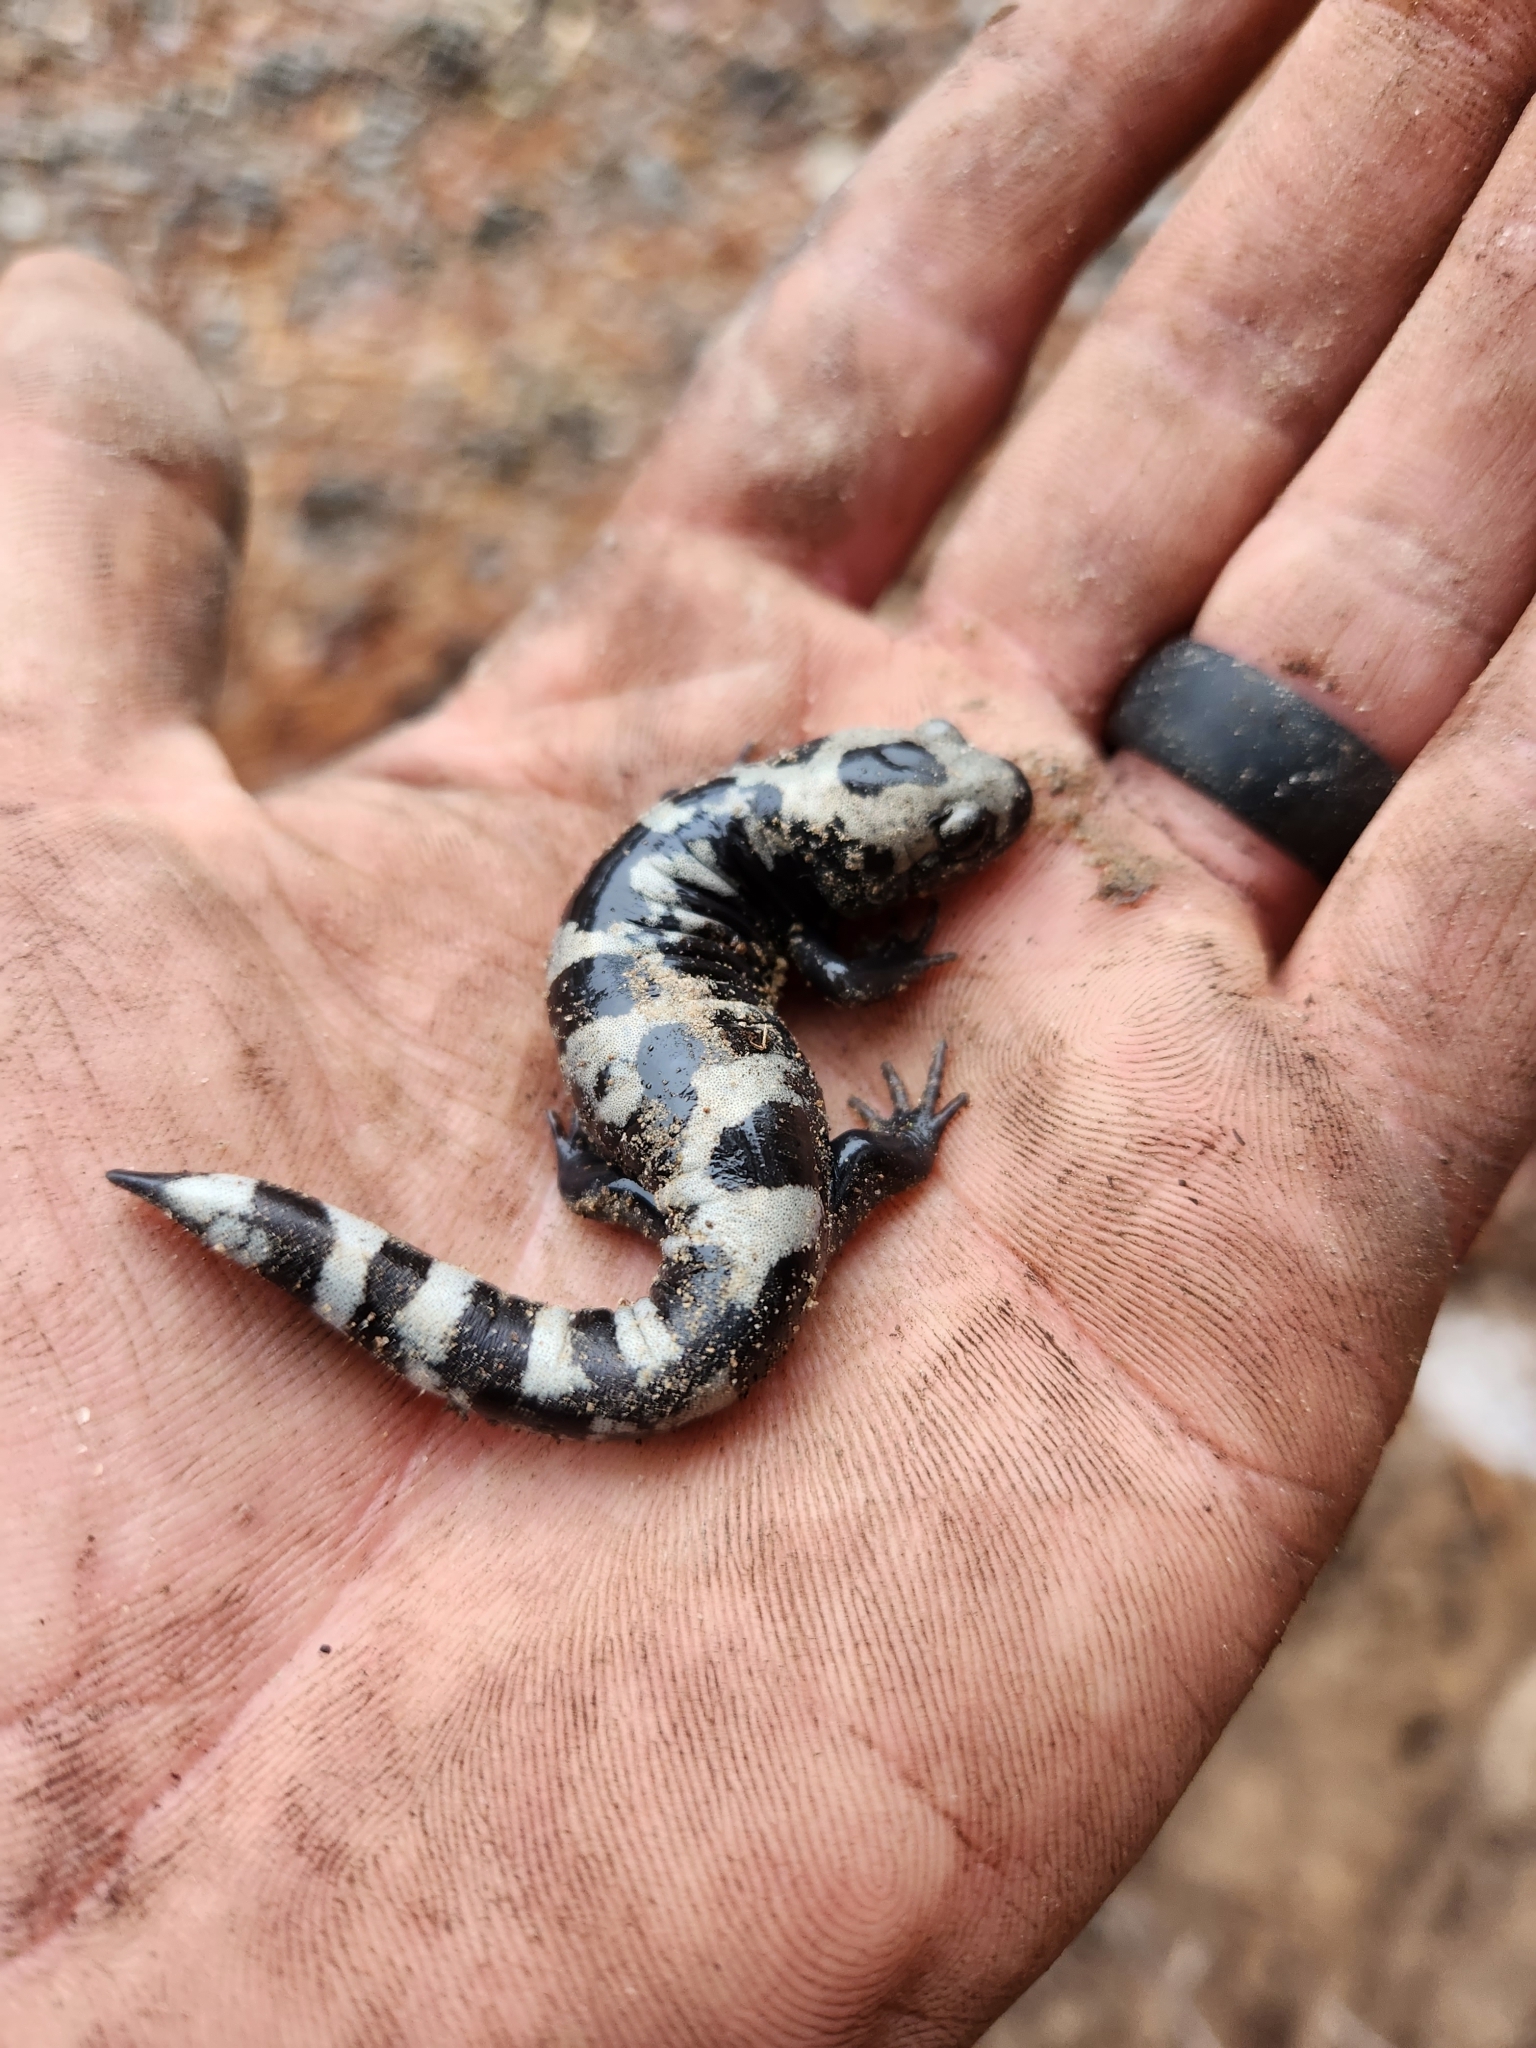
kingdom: Animalia
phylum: Chordata
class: Amphibia
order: Caudata
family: Ambystomatidae
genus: Ambystoma
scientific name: Ambystoma opacum
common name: Marbled salamander
